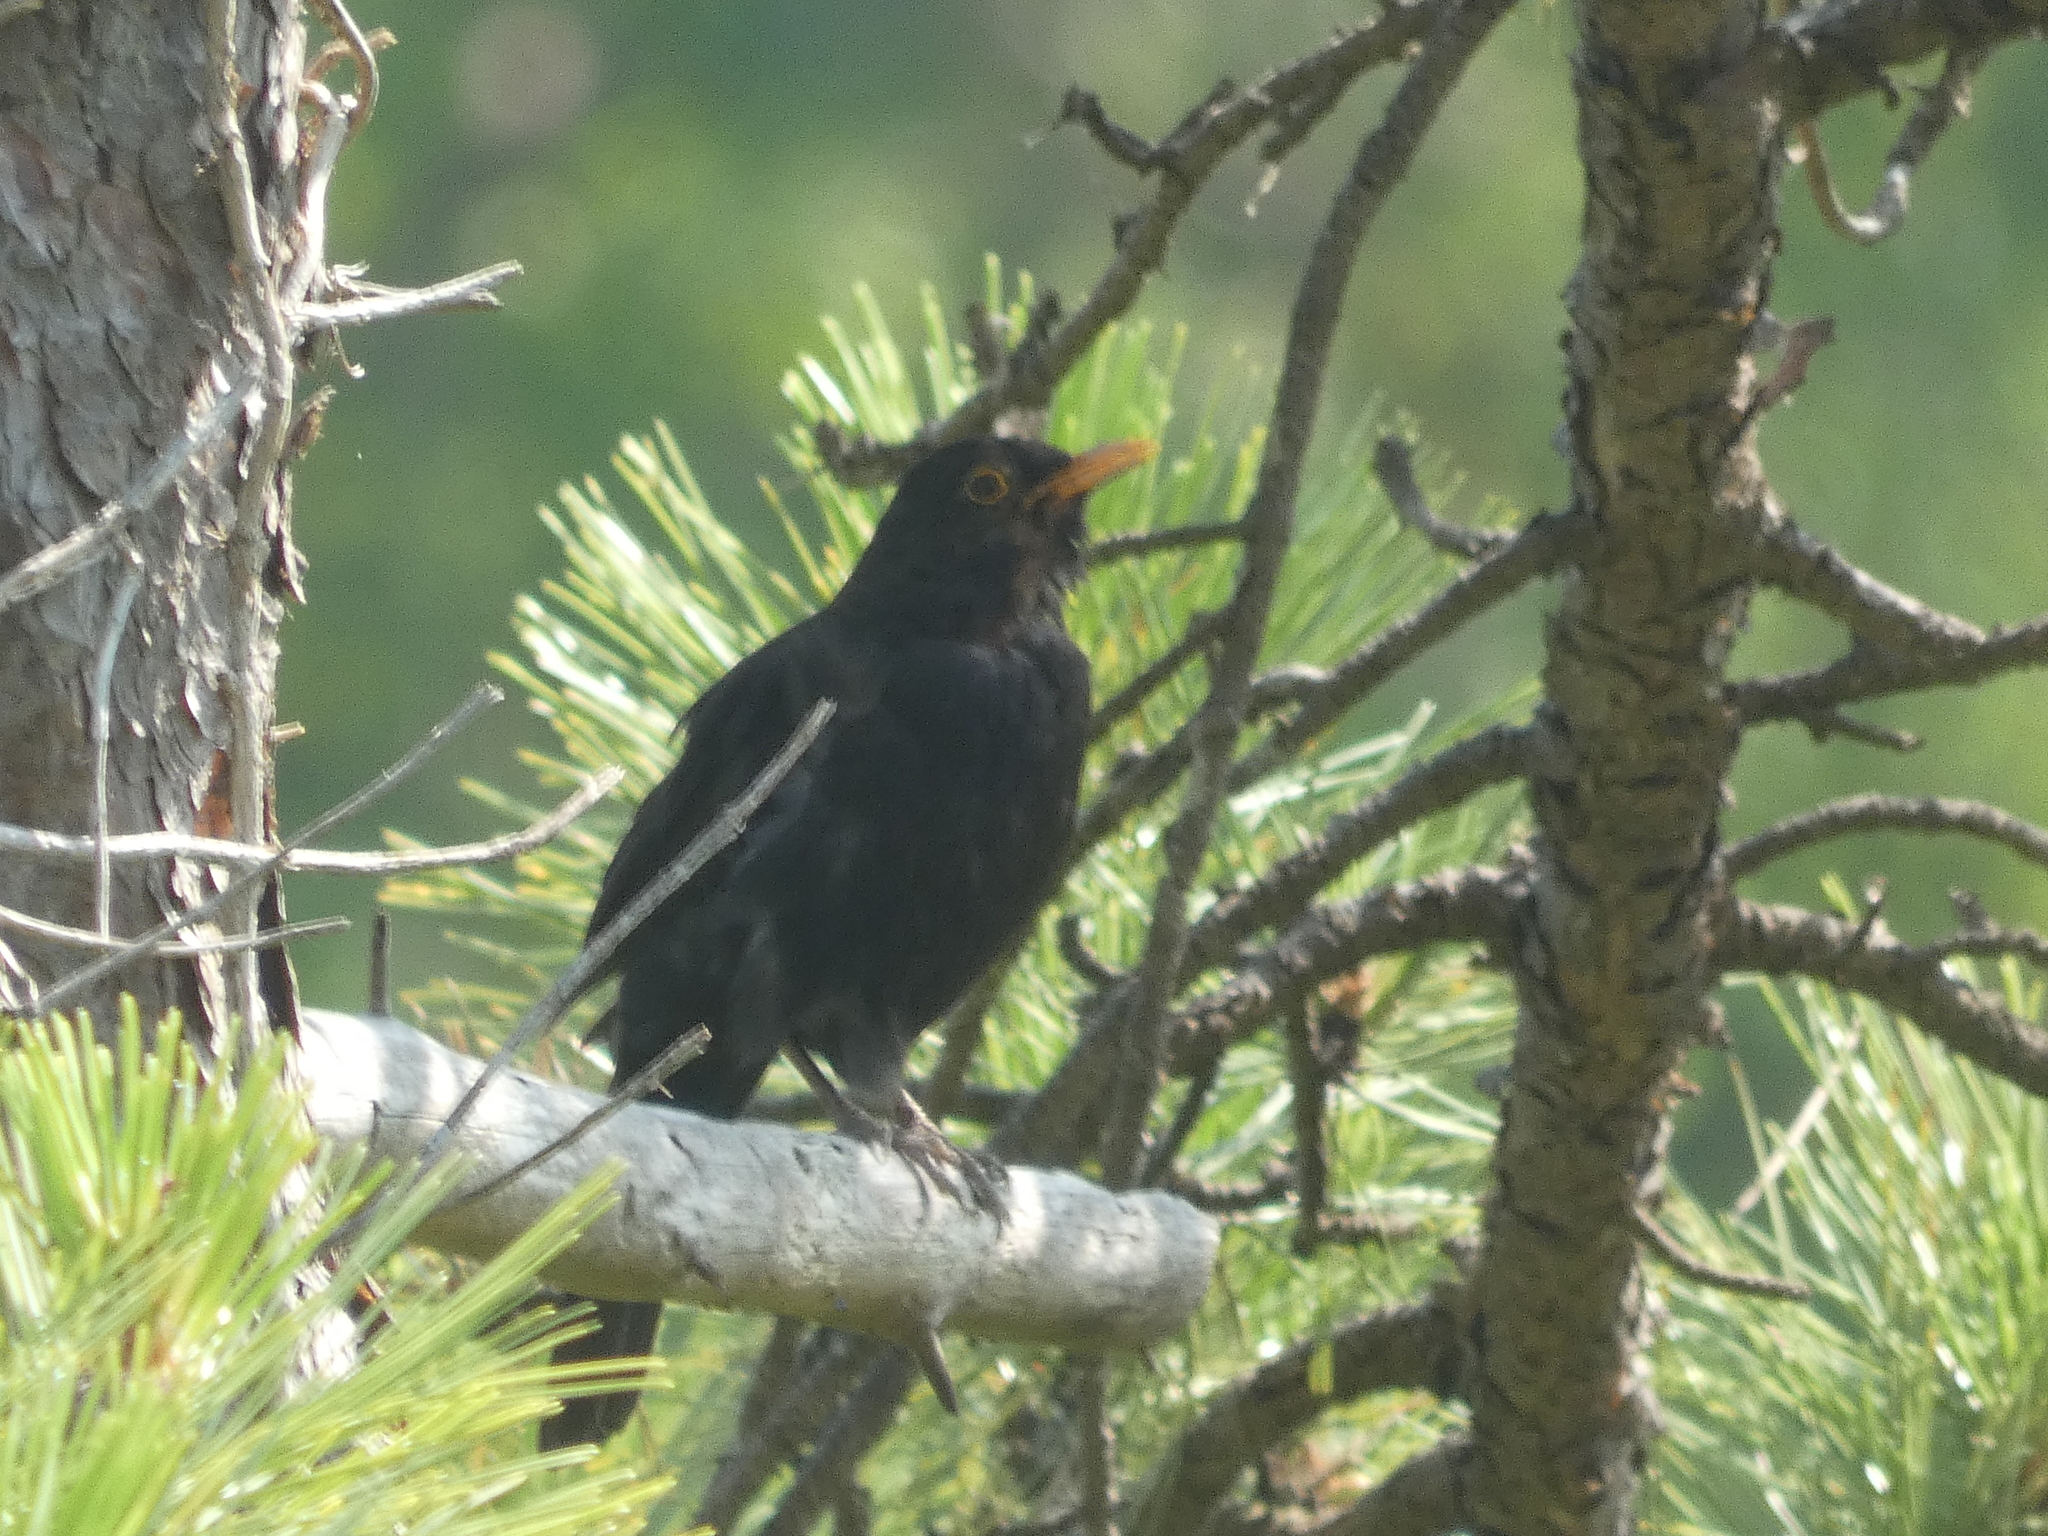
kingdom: Animalia
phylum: Chordata
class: Aves
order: Passeriformes
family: Turdidae
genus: Turdus
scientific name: Turdus merula
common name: Common blackbird
